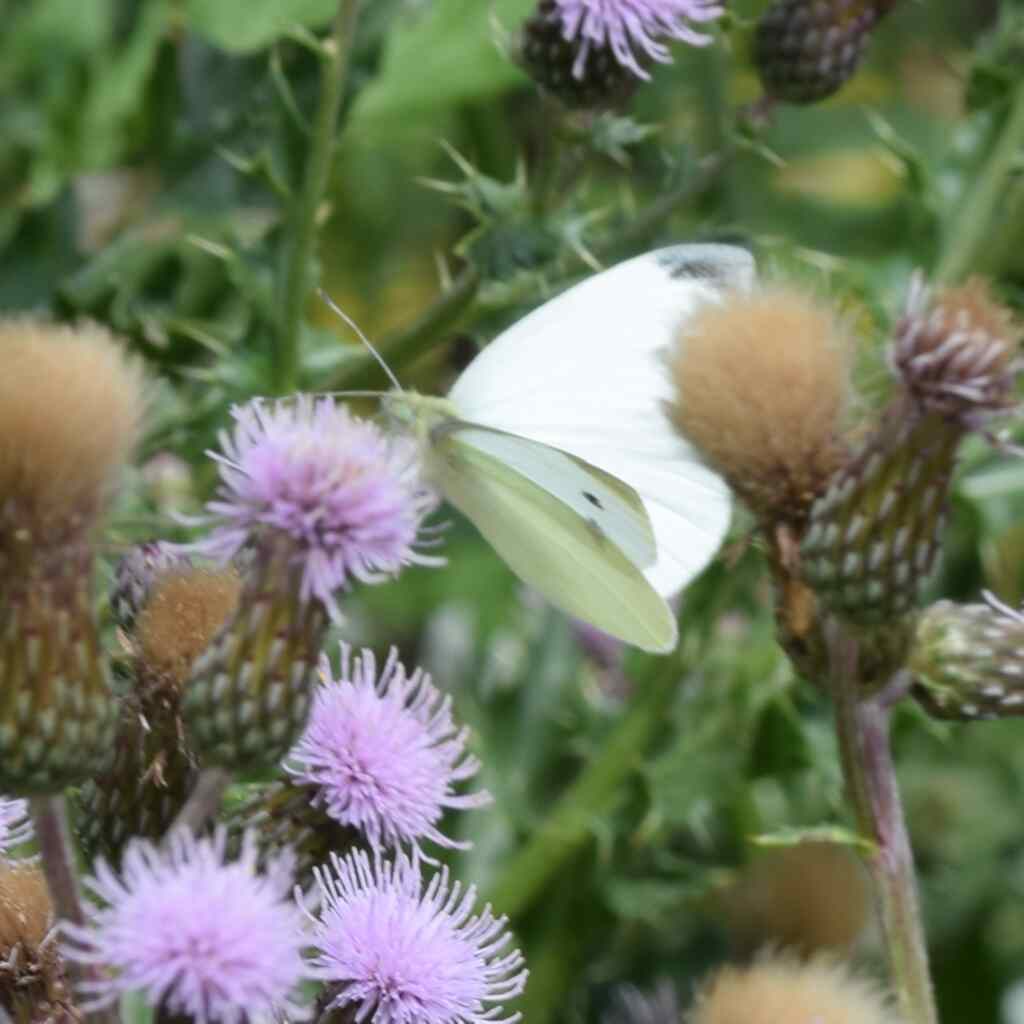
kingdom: Animalia
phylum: Arthropoda
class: Insecta
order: Lepidoptera
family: Pieridae
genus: Pieris
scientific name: Pieris rapae
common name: Small white
